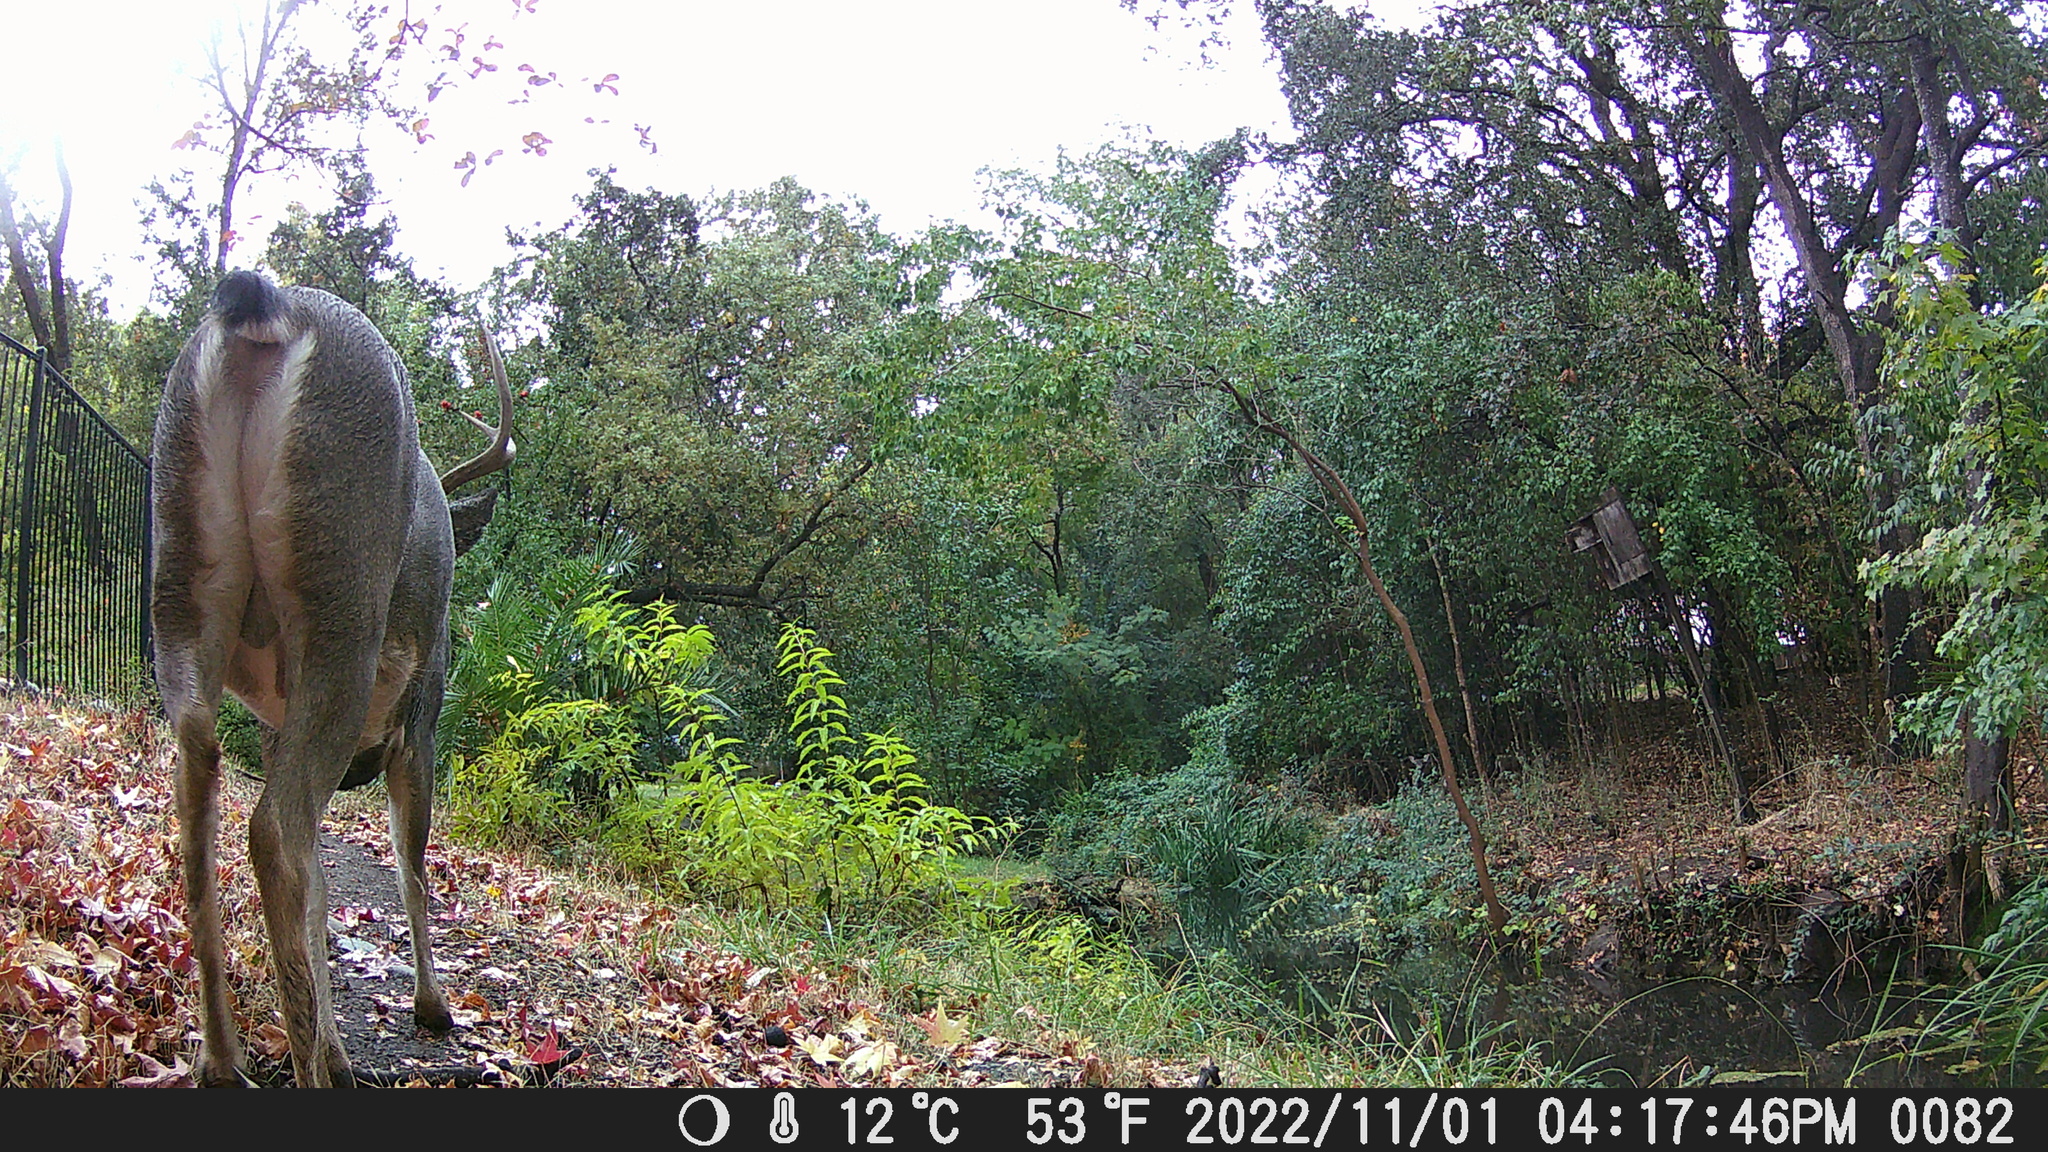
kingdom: Animalia
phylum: Chordata
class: Mammalia
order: Artiodactyla
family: Cervidae
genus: Odocoileus
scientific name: Odocoileus hemionus
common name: Mule deer
